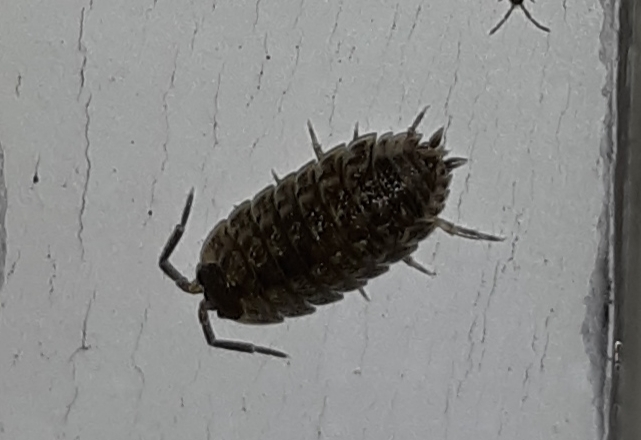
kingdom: Animalia
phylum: Arthropoda
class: Malacostraca
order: Isopoda
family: Porcellionidae
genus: Porcellio
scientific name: Porcellio spinicornis
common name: Painted woodlouse
